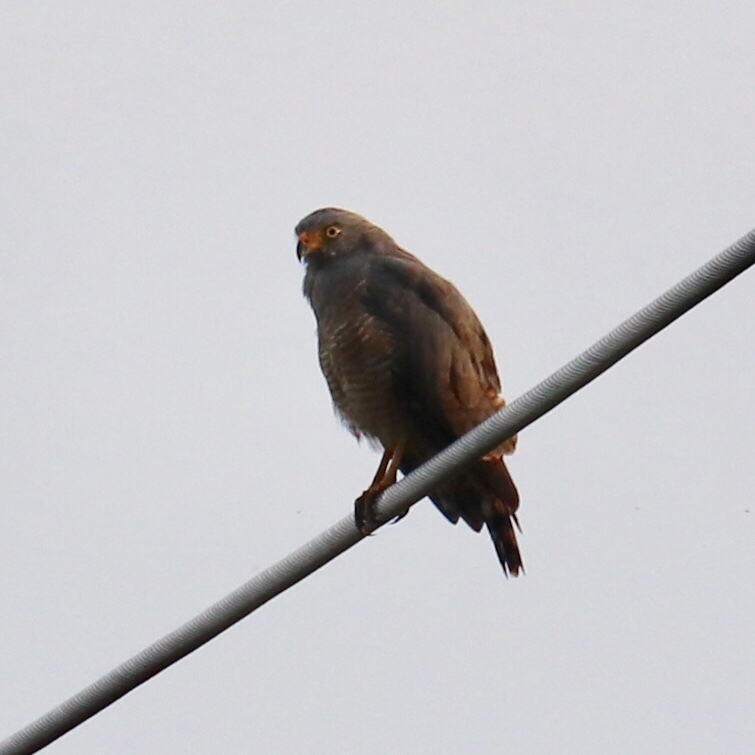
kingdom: Animalia
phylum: Chordata
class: Aves
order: Accipitriformes
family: Accipitridae
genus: Rupornis
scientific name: Rupornis magnirostris
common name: Roadside hawk
